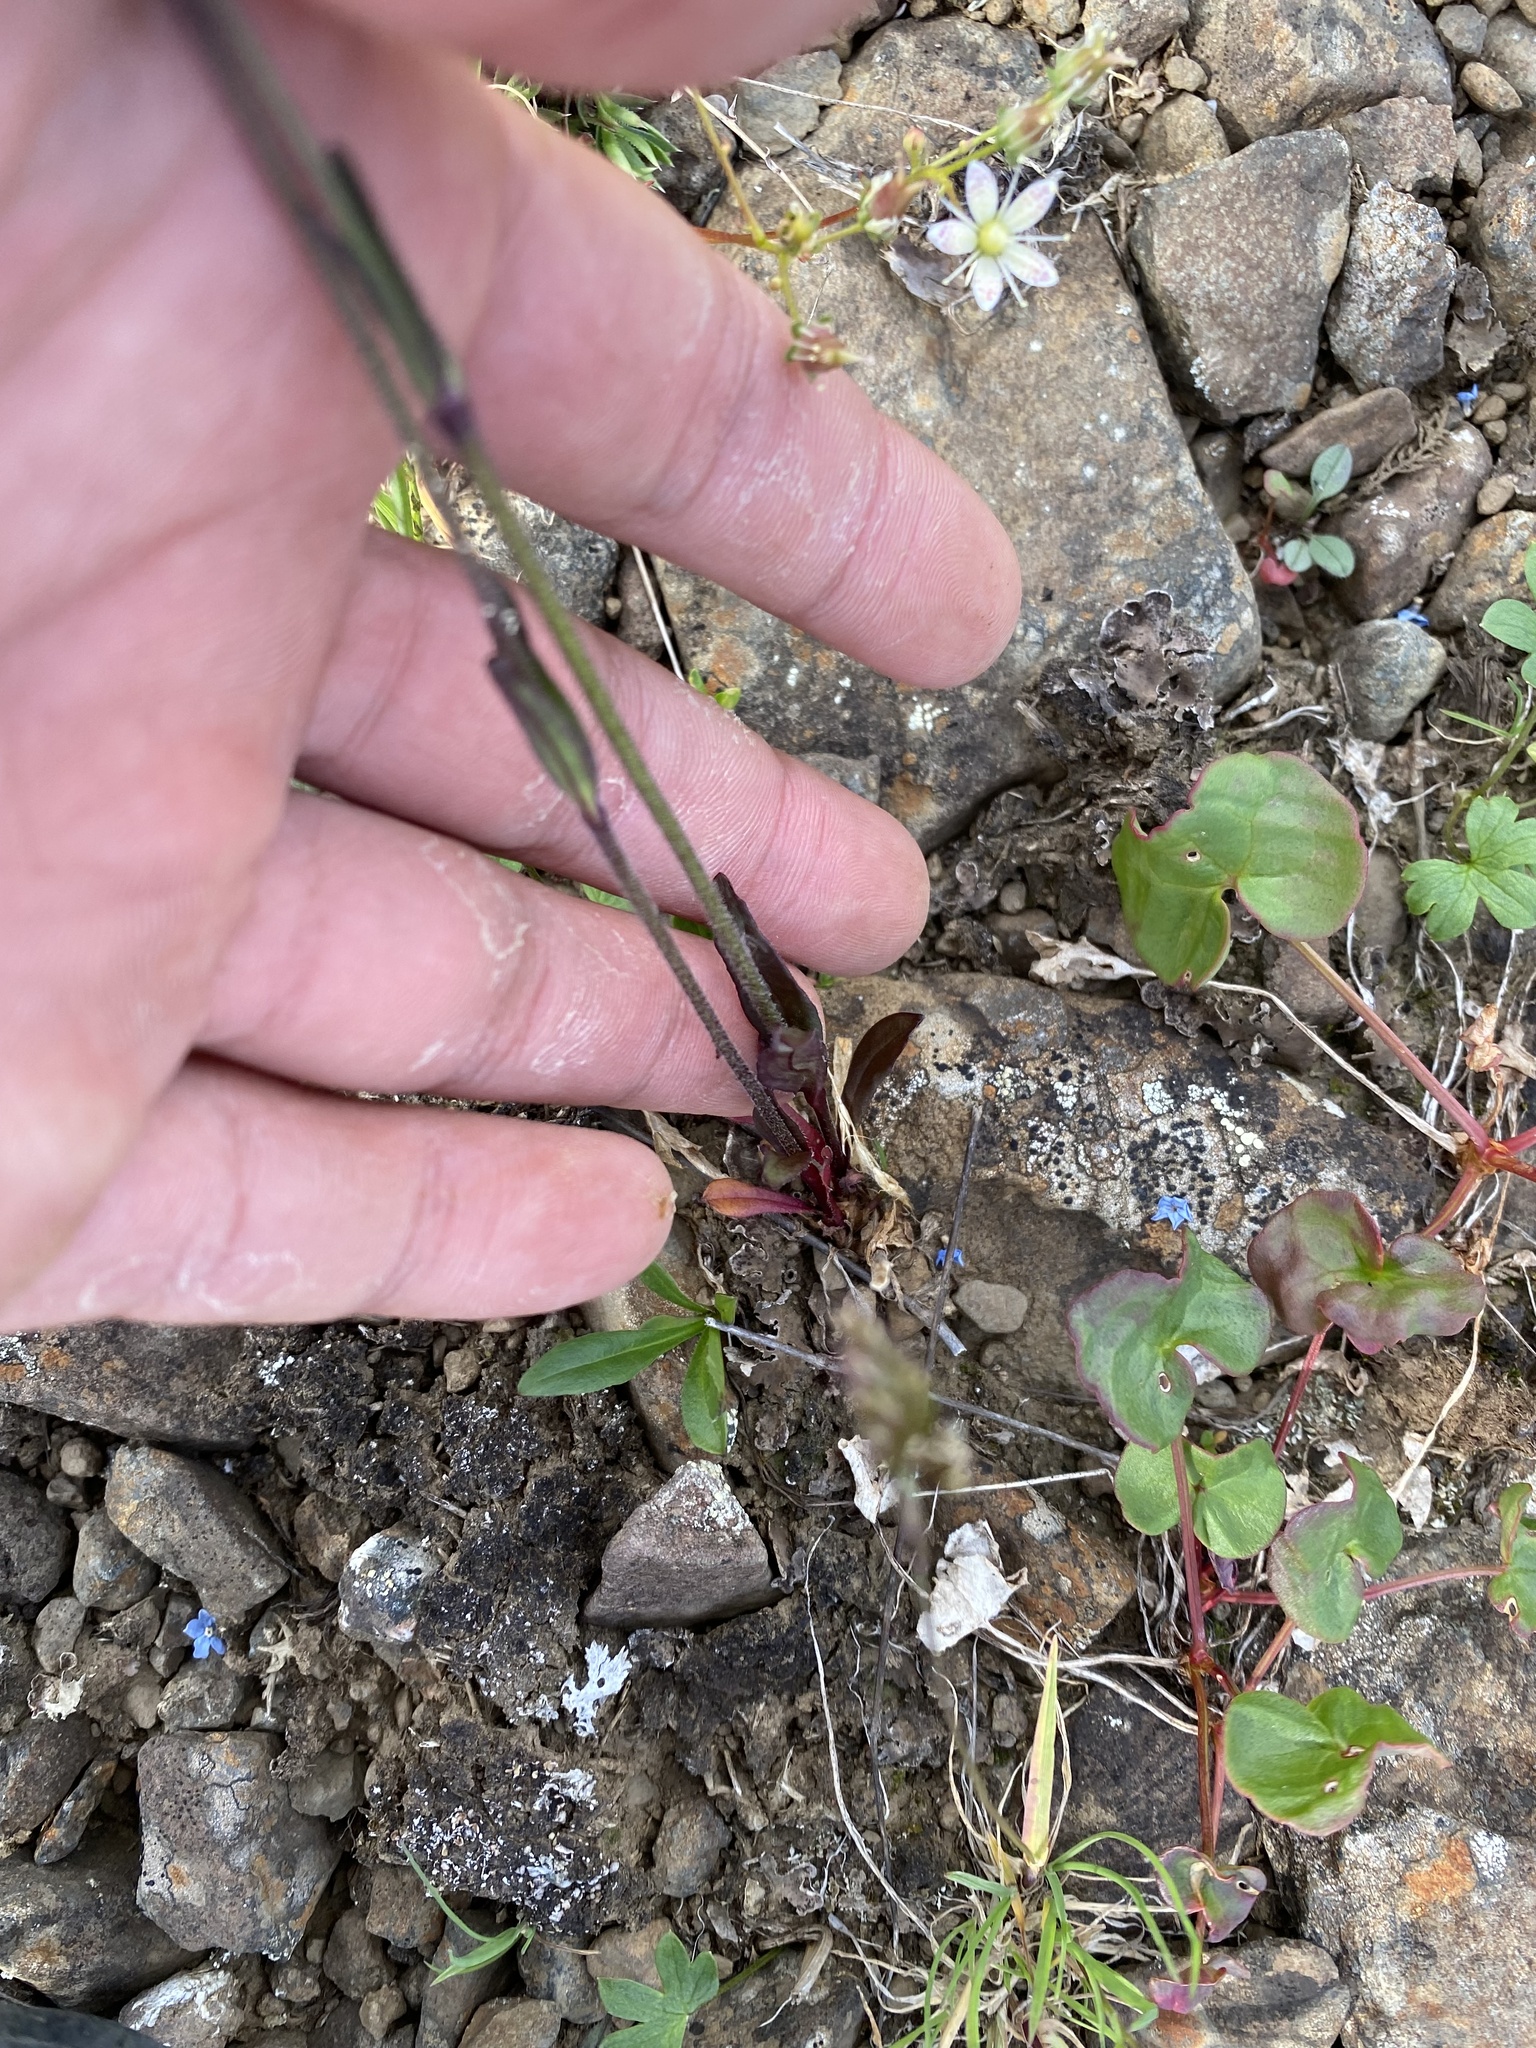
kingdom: Plantae
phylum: Tracheophyta
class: Magnoliopsida
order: Caryophyllales
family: Caryophyllaceae
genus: Silene
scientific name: Silene wahlbergella
